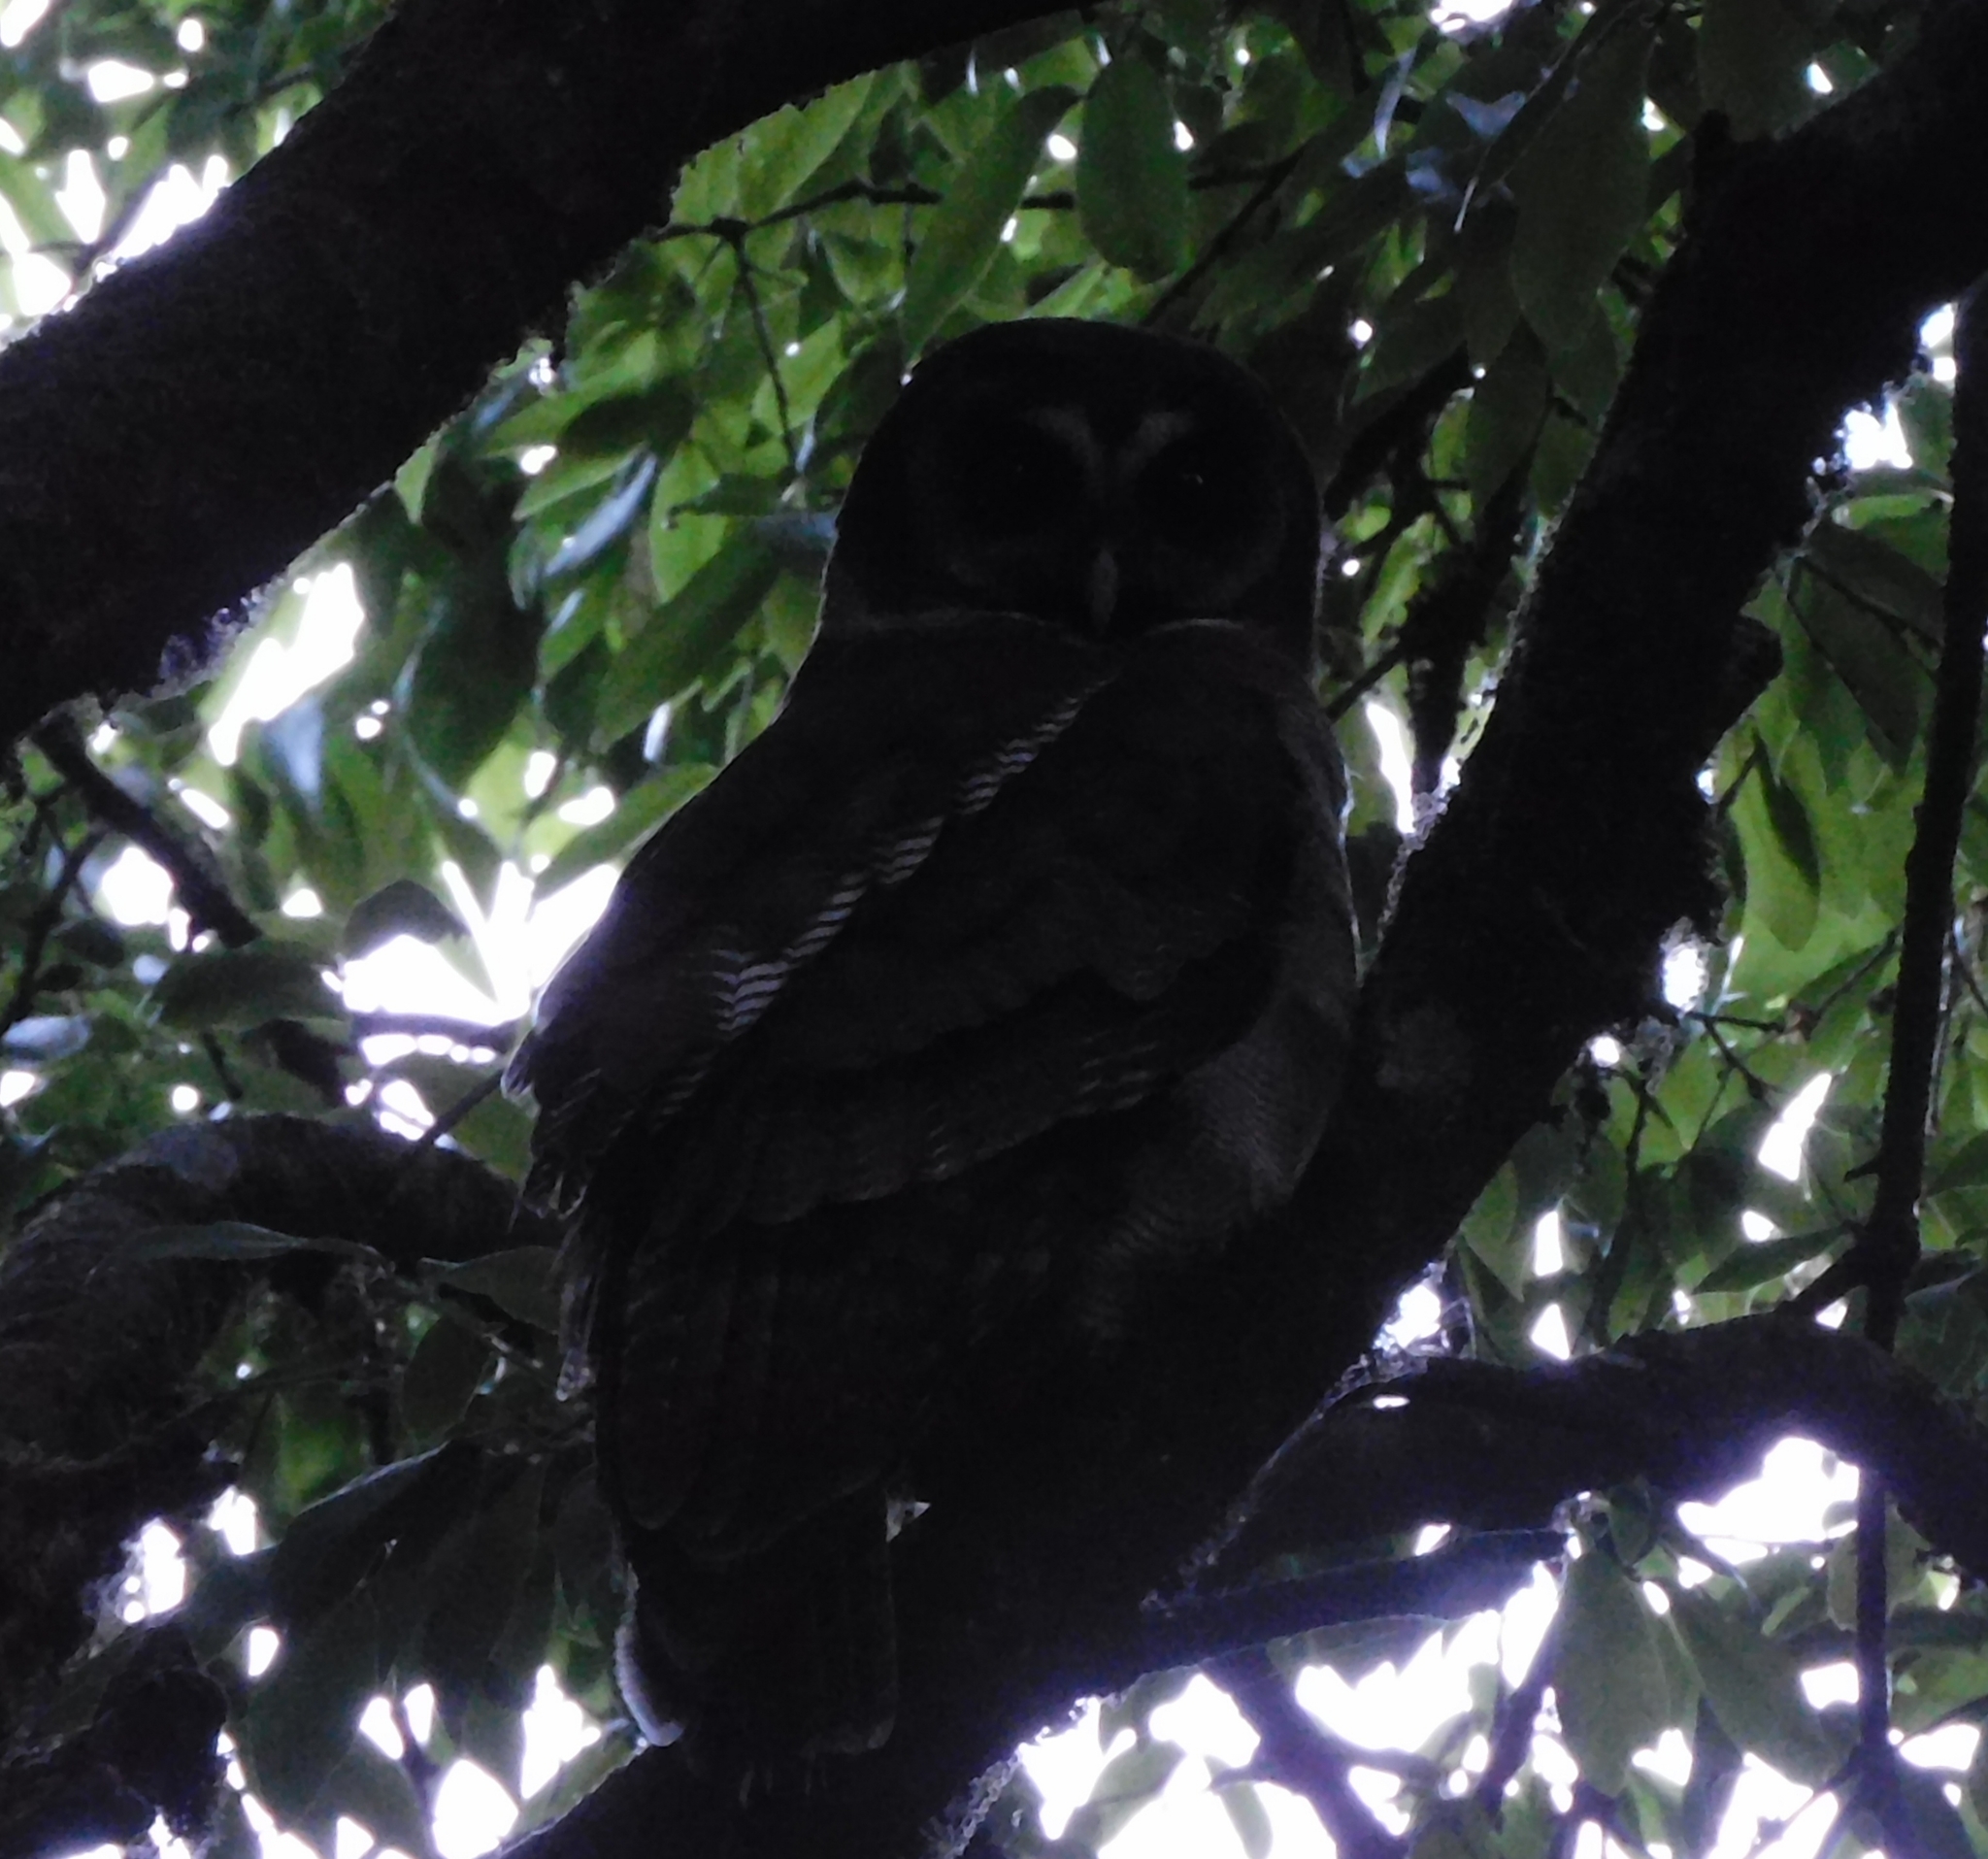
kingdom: Animalia
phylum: Chordata
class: Aves
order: Strigiformes
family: Strigidae
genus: Strix
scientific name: Strix leptogrammica
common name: Brown wood owl
